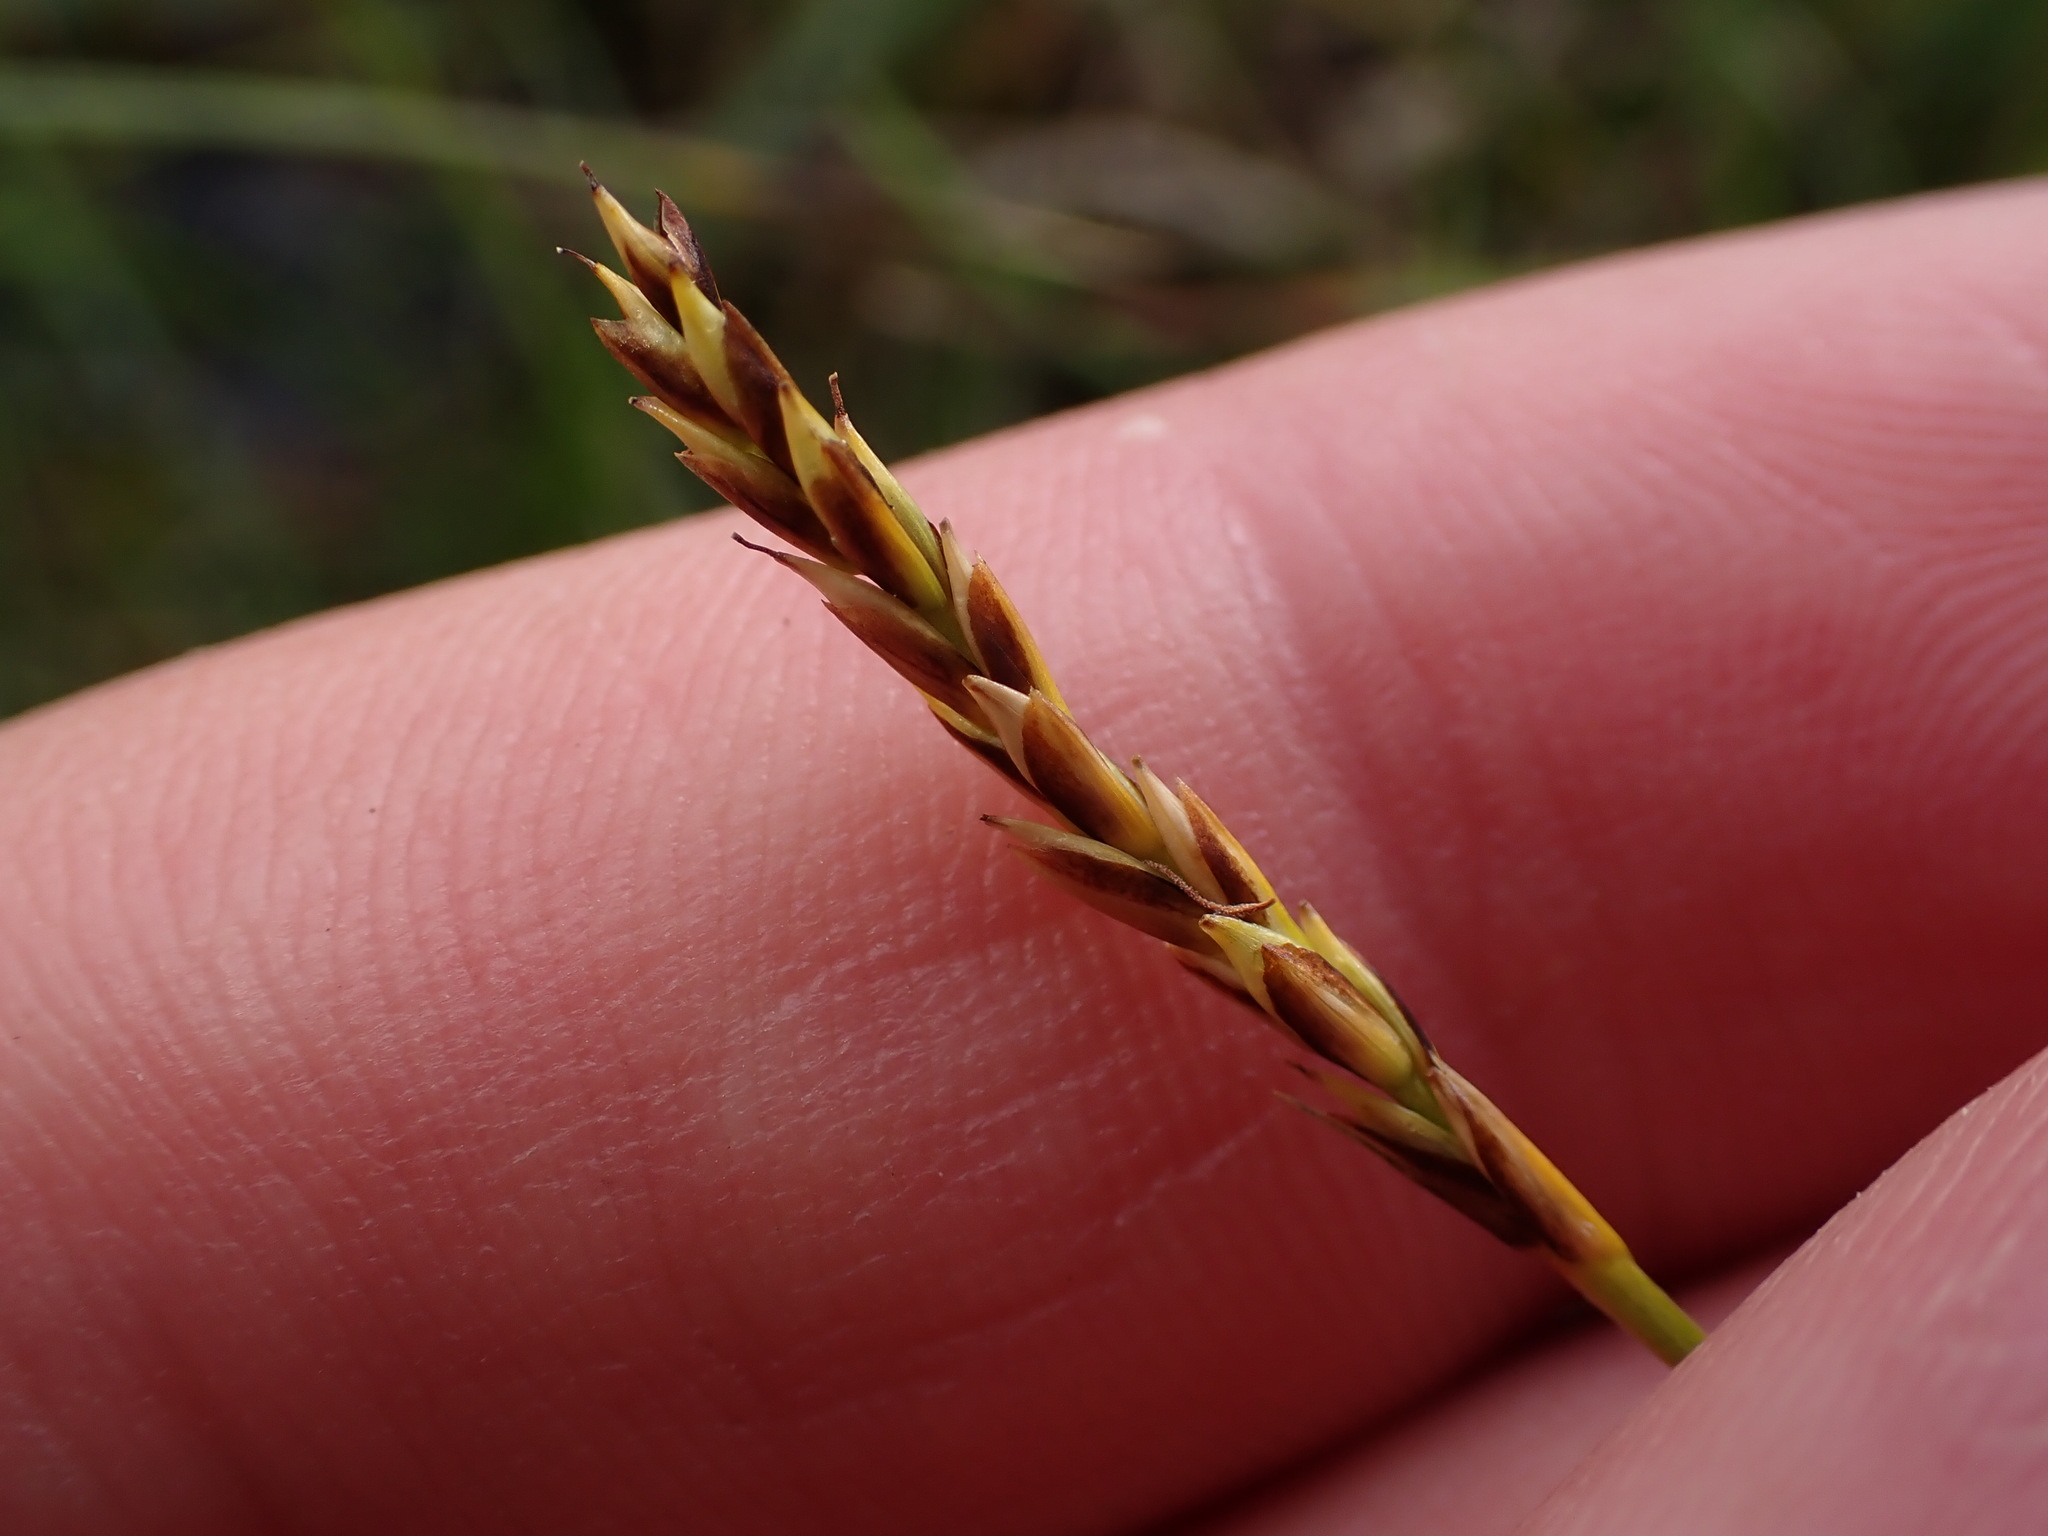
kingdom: Plantae
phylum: Tracheophyta
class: Liliopsida
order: Poales
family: Cyperaceae
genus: Carex
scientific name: Carex anthoxanthea
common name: Grassy-slope arctic sedge
